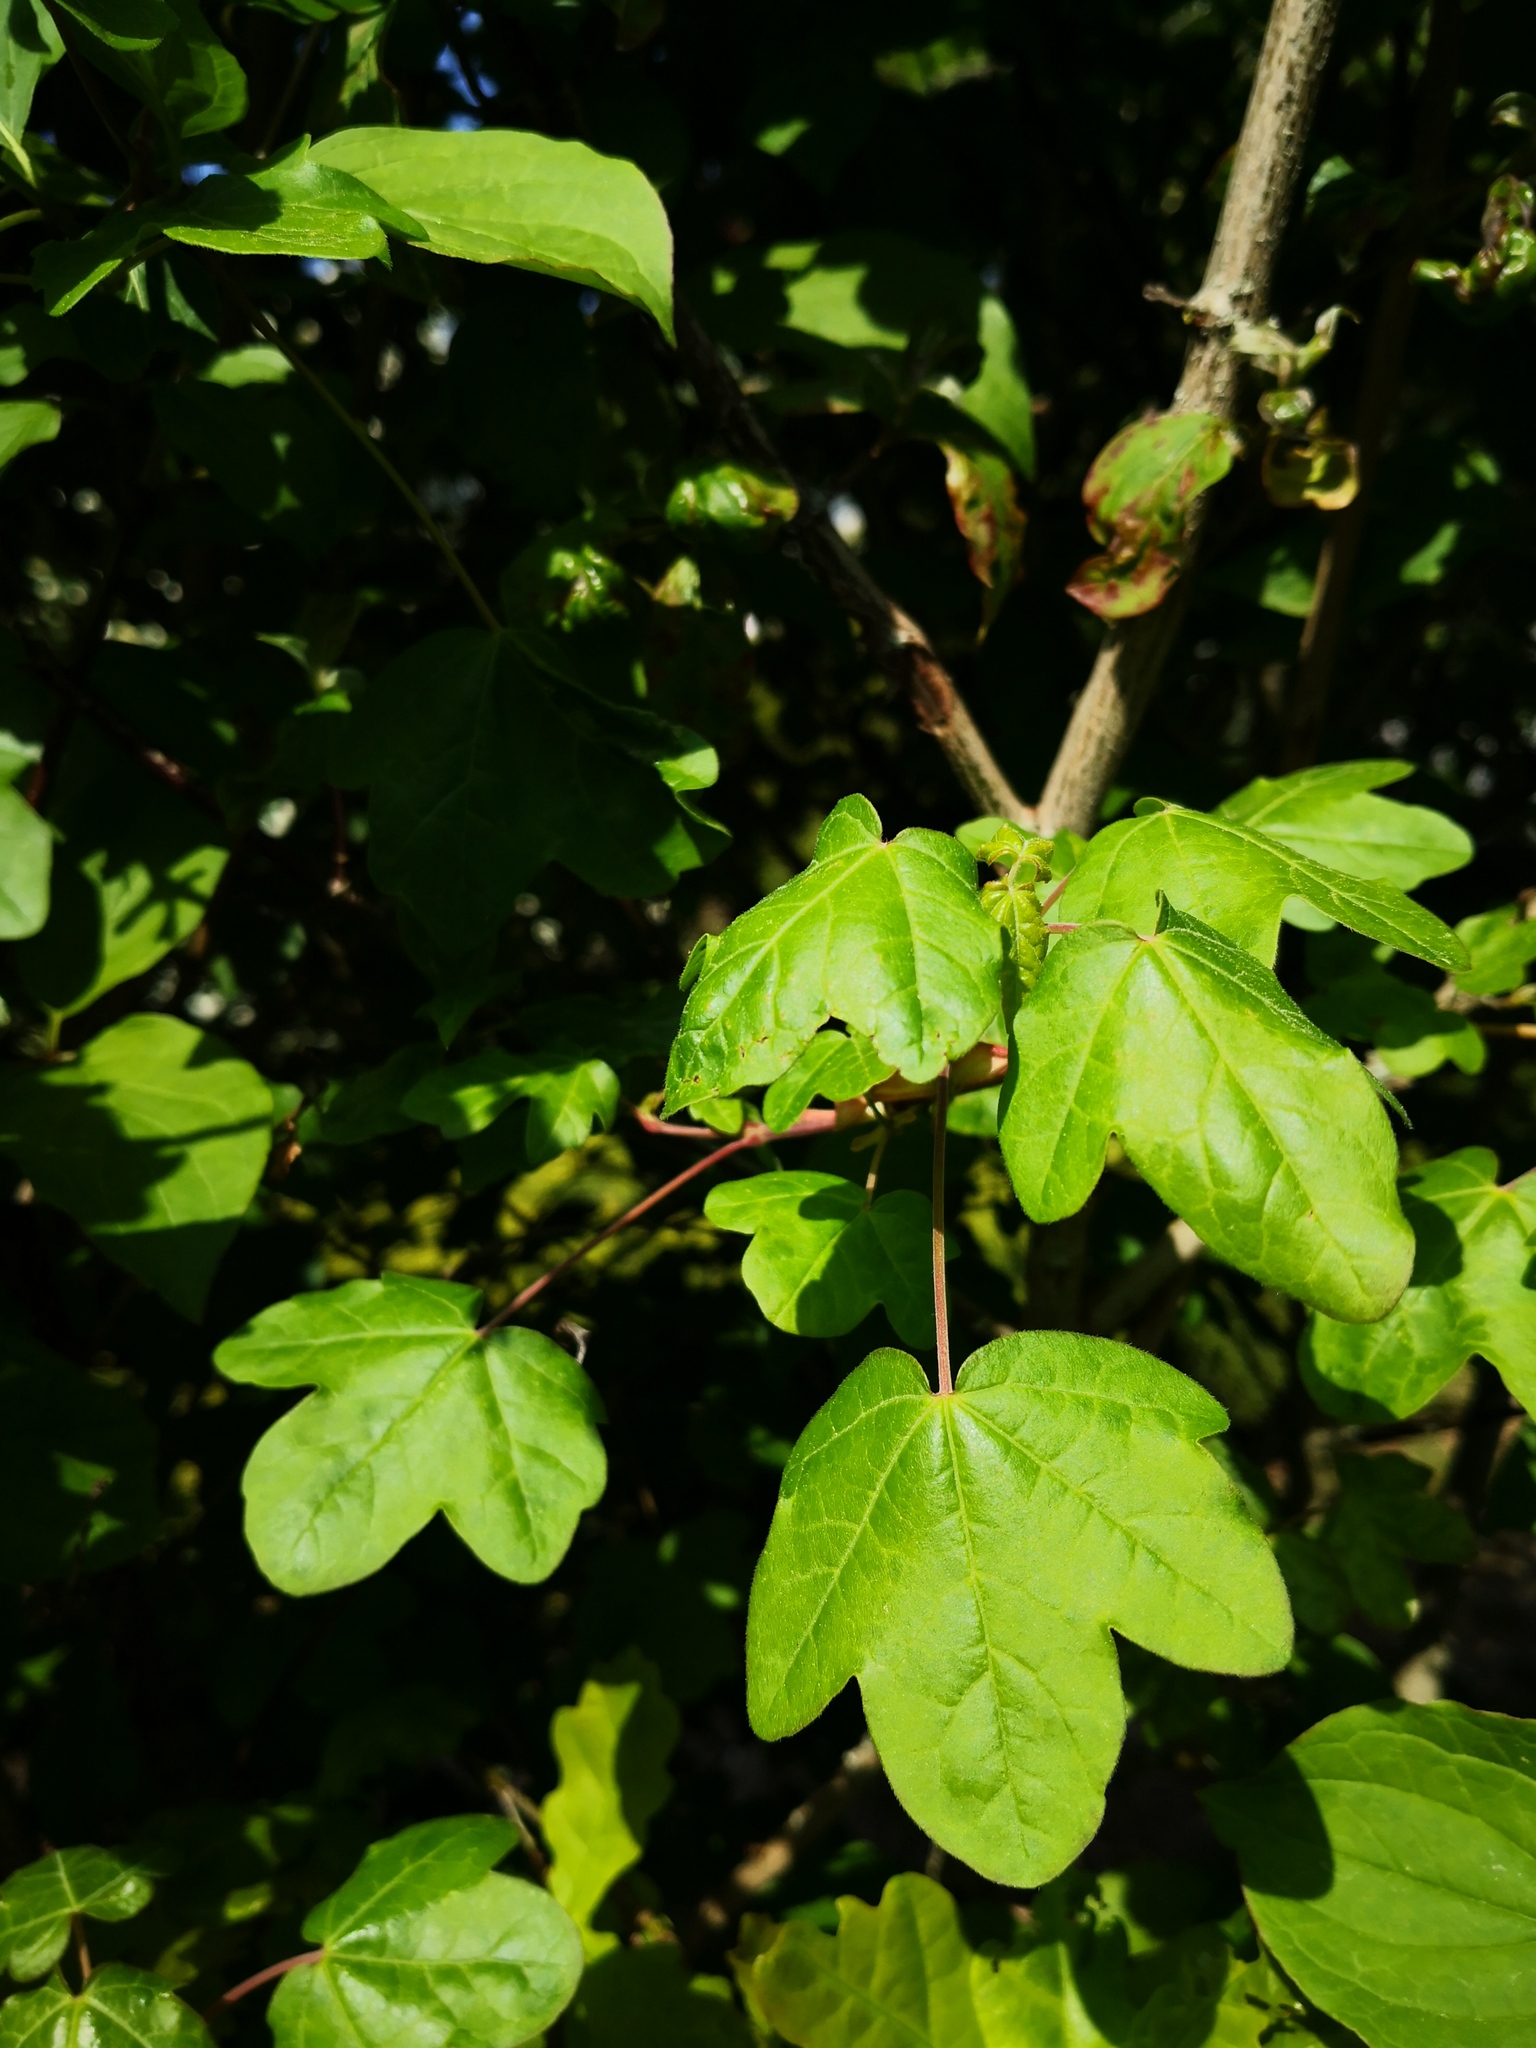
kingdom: Plantae
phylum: Tracheophyta
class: Magnoliopsida
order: Sapindales
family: Sapindaceae
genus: Acer
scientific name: Acer campestre
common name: Field maple
